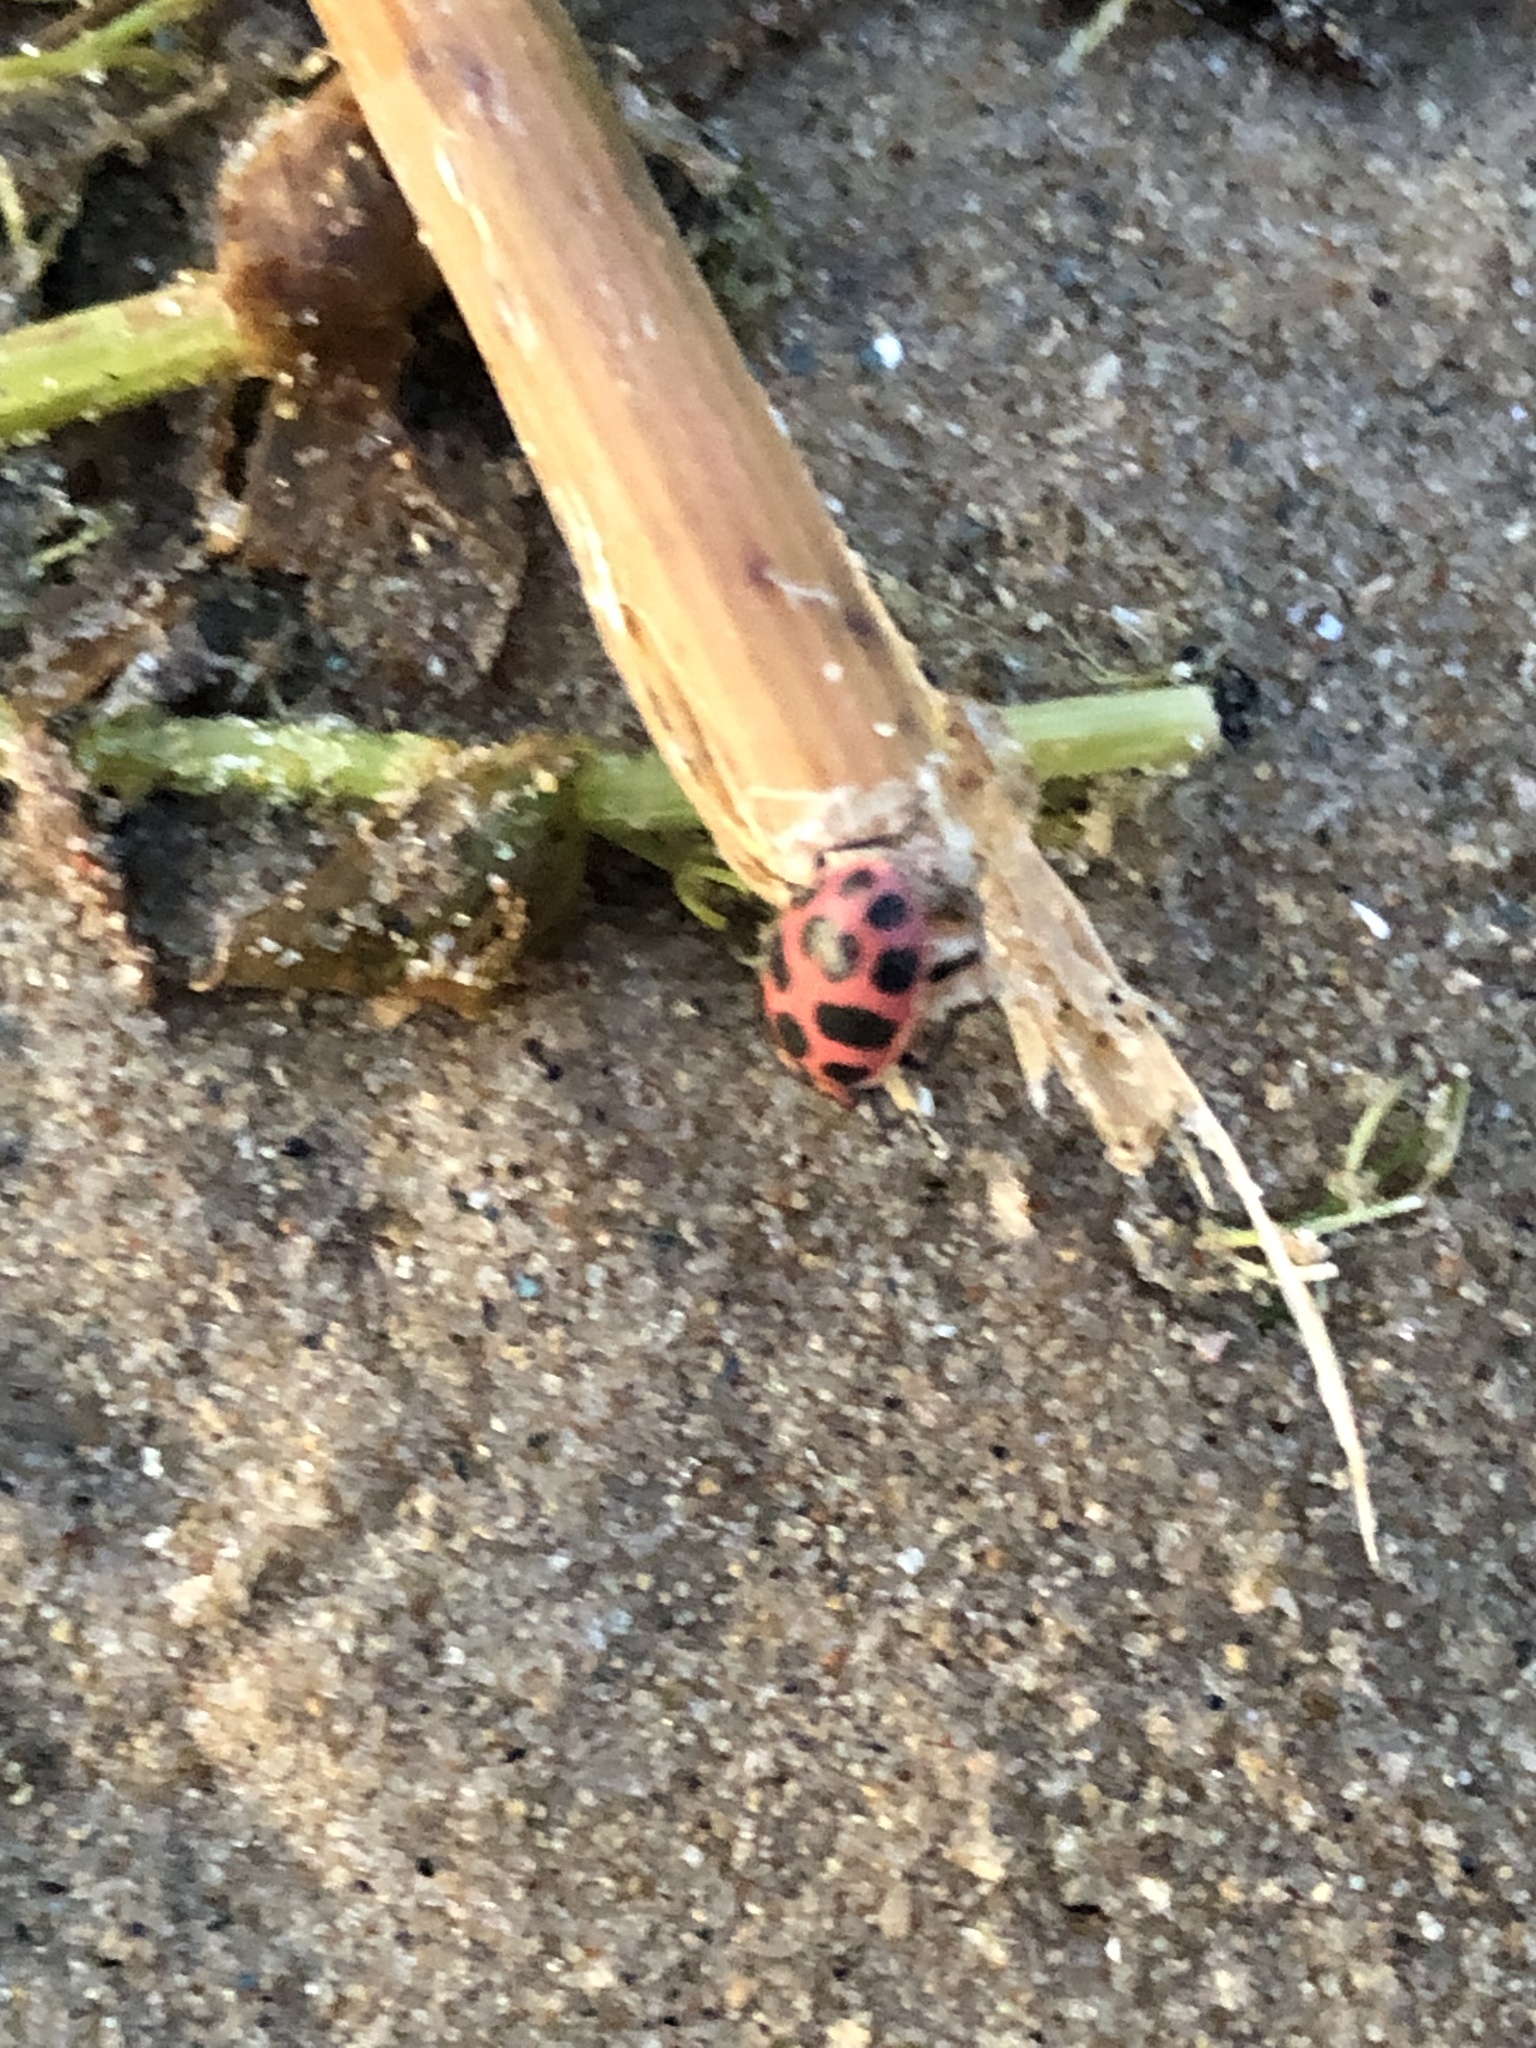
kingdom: Animalia
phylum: Arthropoda
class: Insecta
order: Coleoptera
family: Coccinellidae
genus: Coleomegilla
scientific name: Coleomegilla maculata
